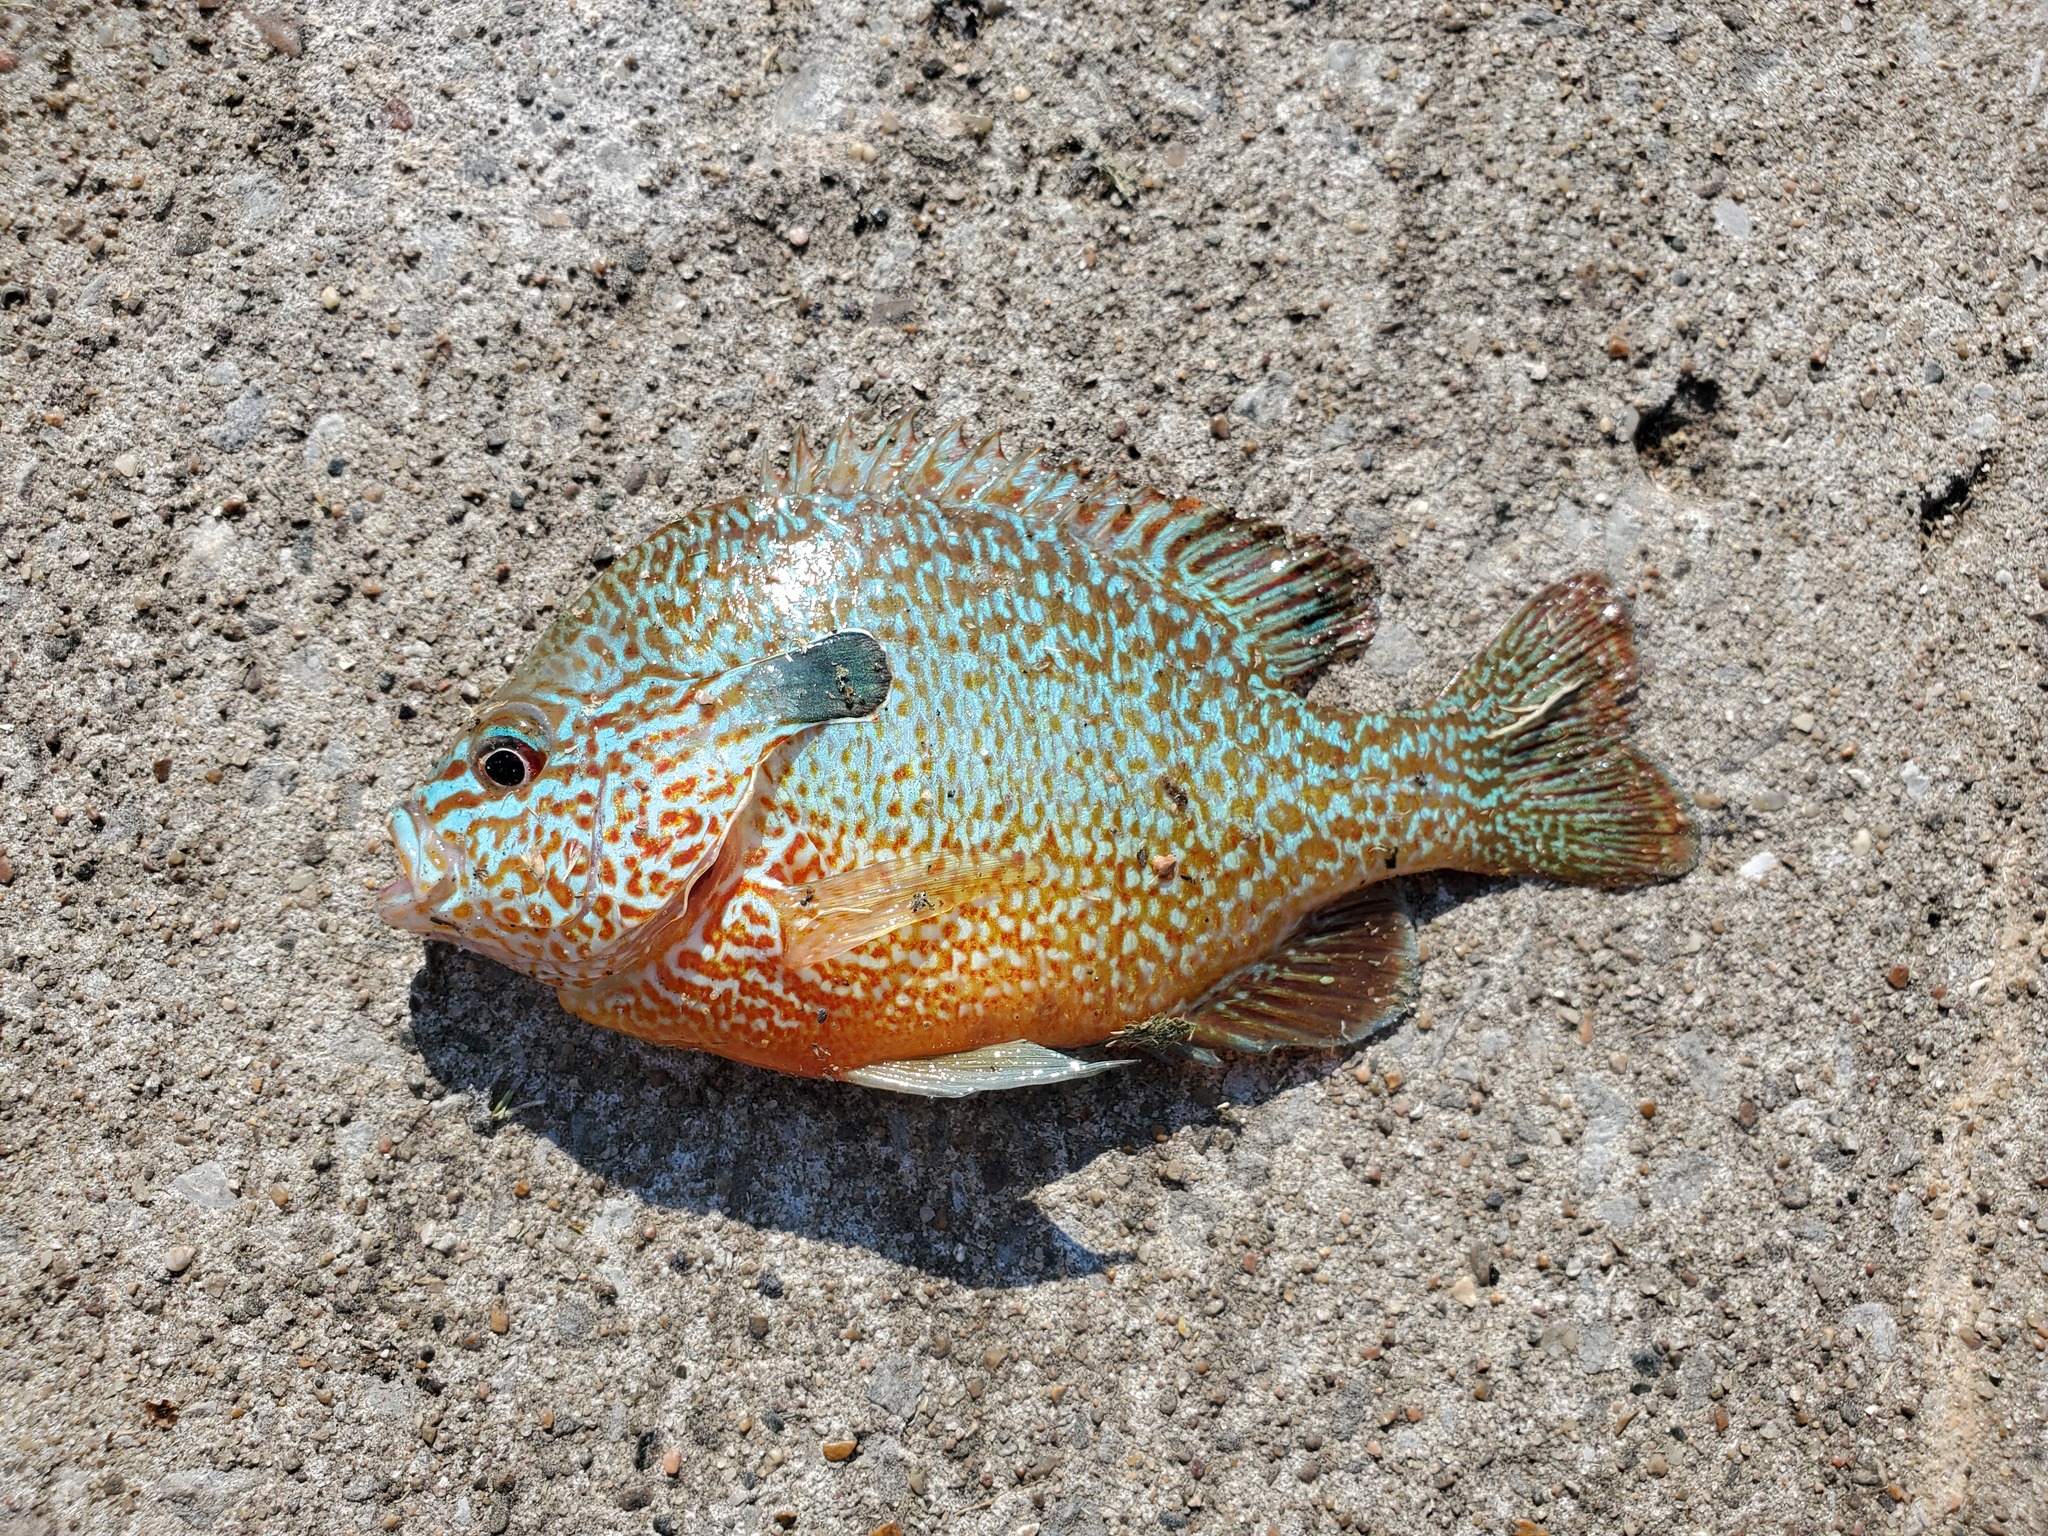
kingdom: Animalia
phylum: Chordata
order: Perciformes
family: Centrarchidae
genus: Lepomis
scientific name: Lepomis megalotis
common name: Longear sunfish
